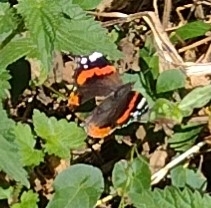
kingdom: Animalia
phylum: Arthropoda
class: Insecta
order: Lepidoptera
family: Nymphalidae
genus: Vanessa
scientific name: Vanessa atalanta
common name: Red admiral
